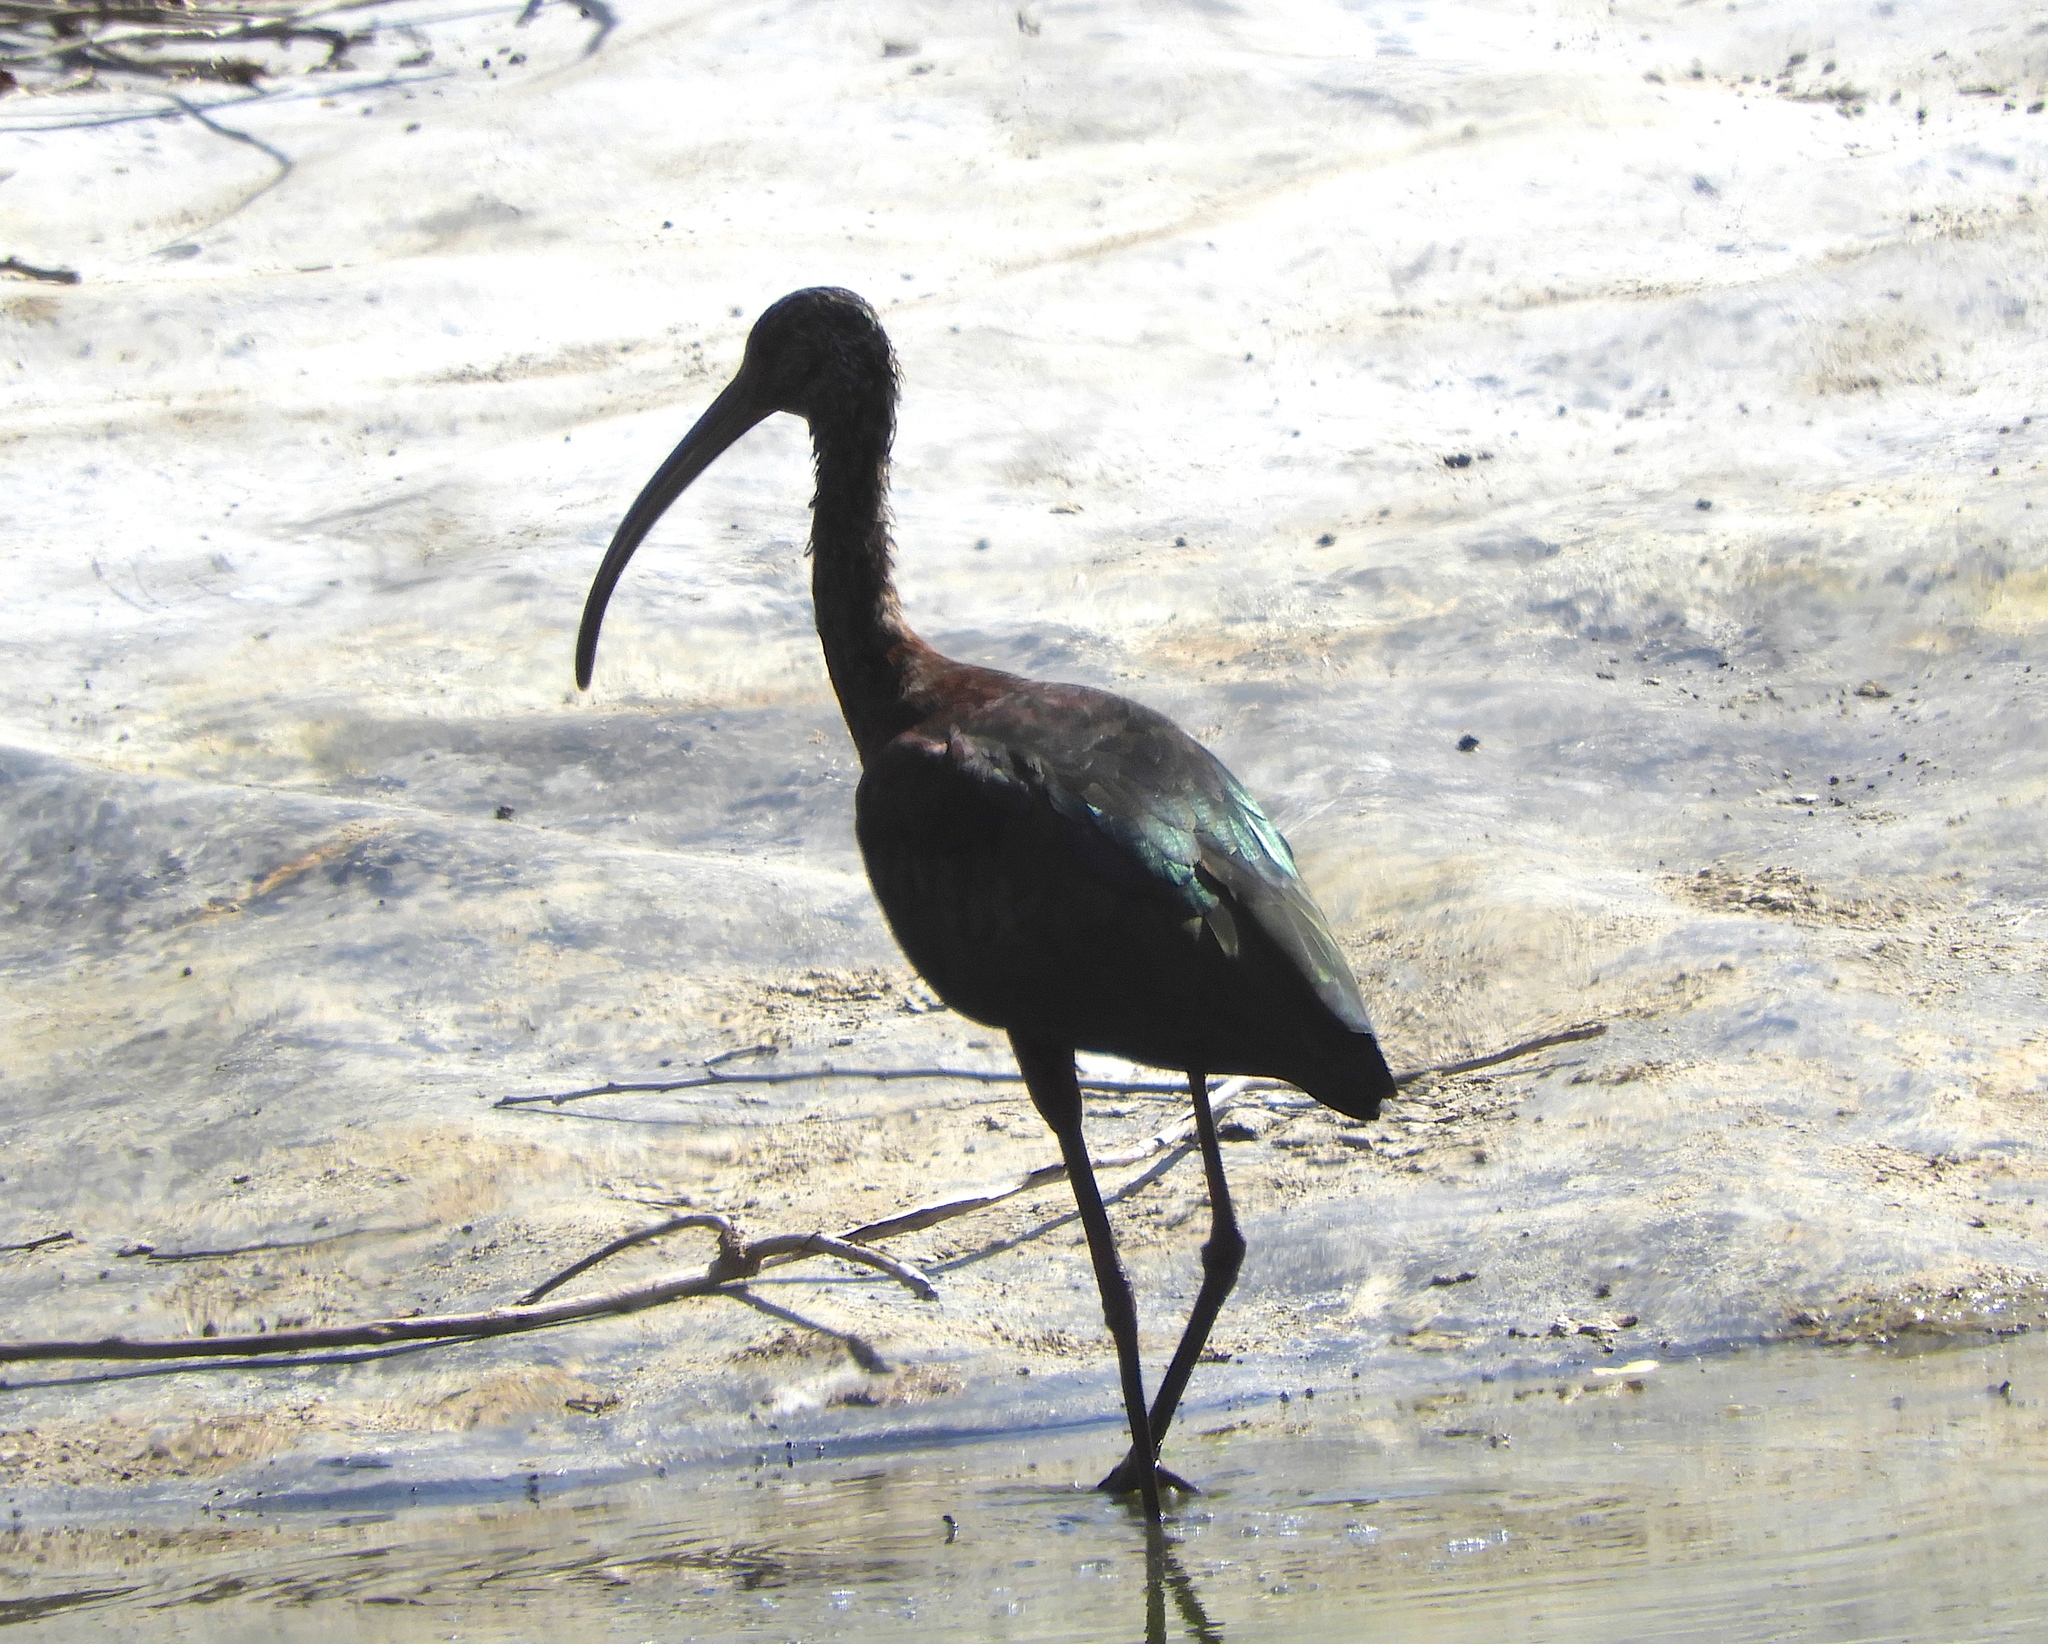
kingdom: Animalia
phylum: Chordata
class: Aves
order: Pelecaniformes
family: Threskiornithidae
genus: Plegadis
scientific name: Plegadis chihi
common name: White-faced ibis
